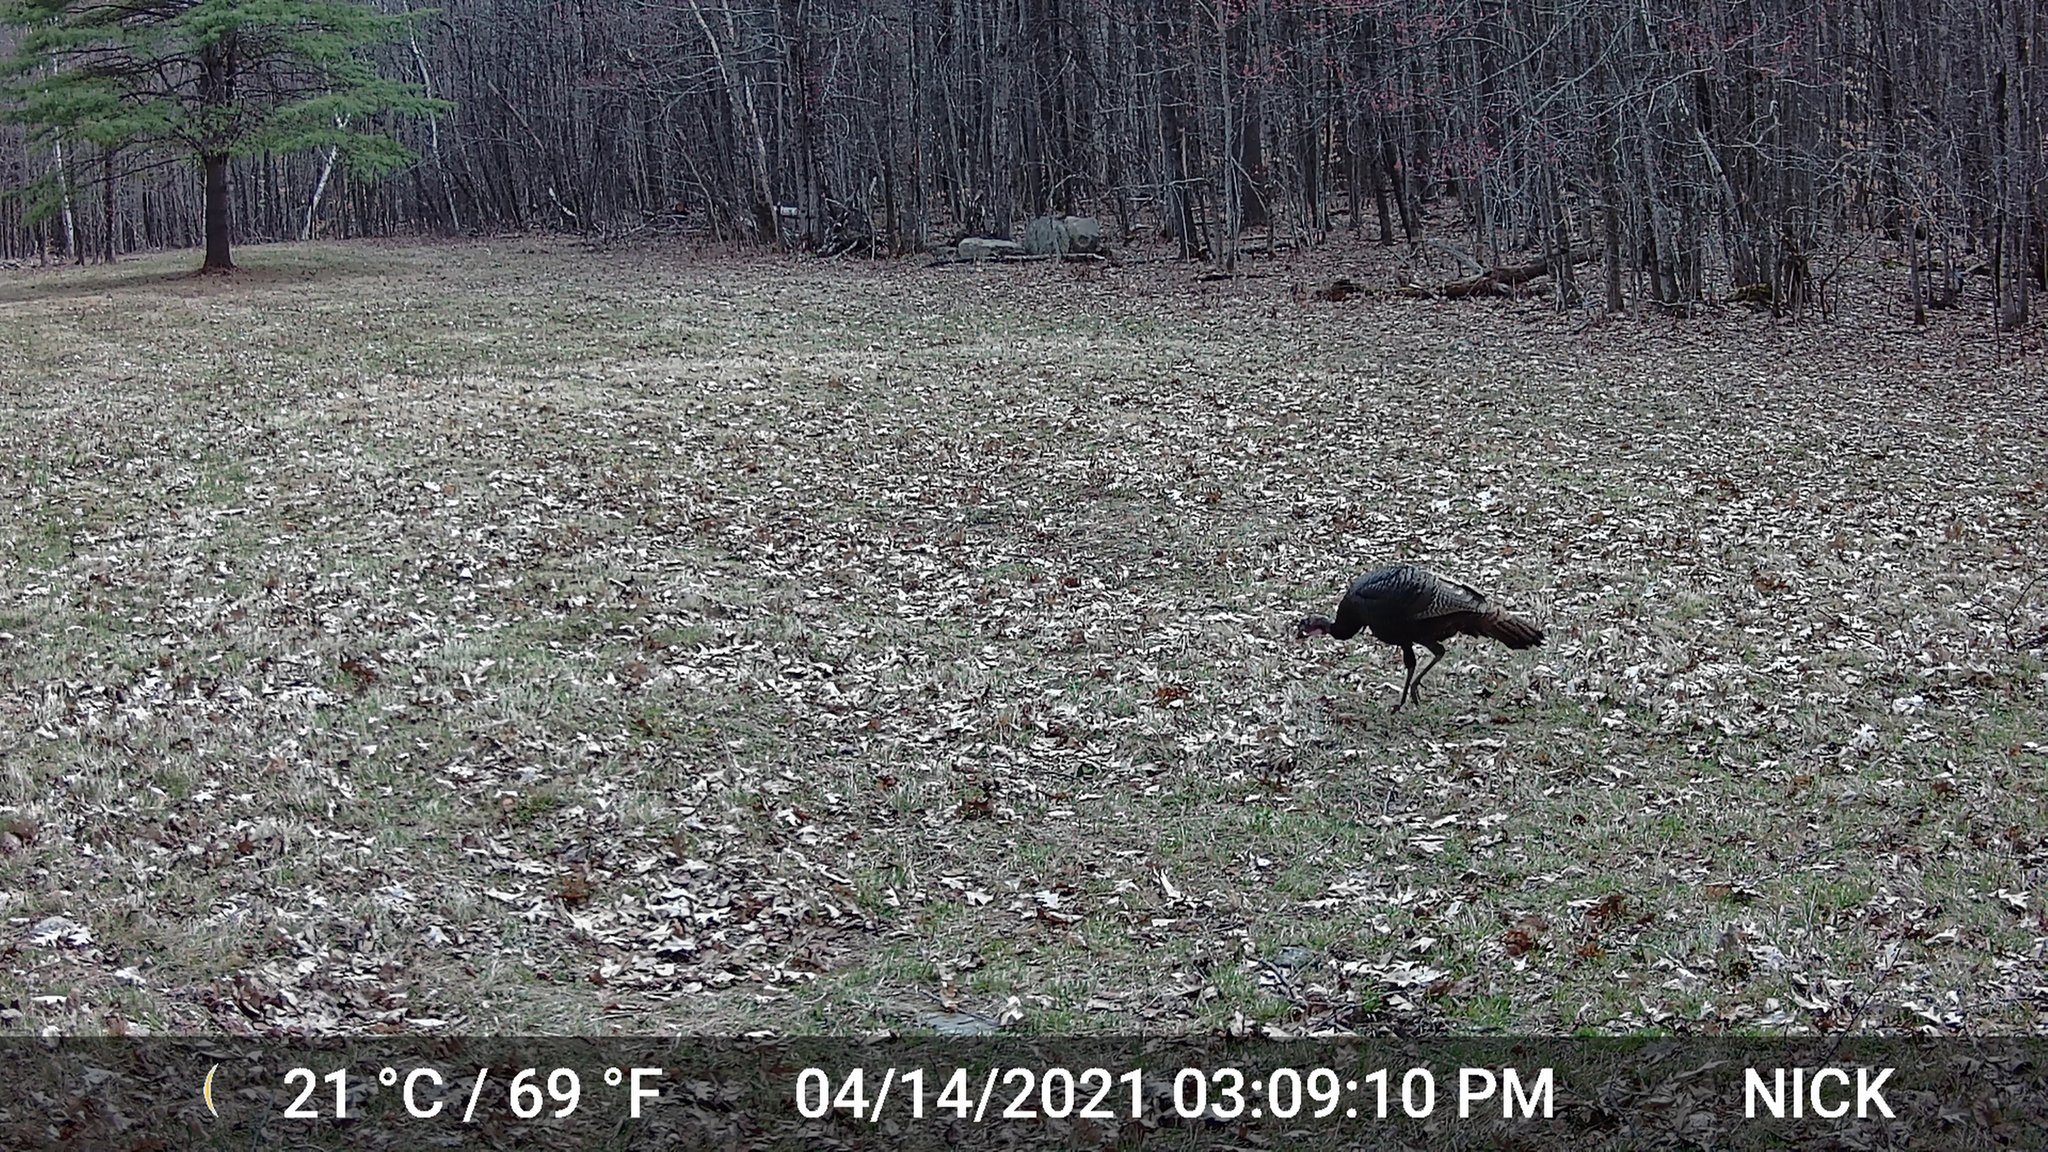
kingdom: Animalia
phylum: Chordata
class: Aves
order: Galliformes
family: Phasianidae
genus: Meleagris
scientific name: Meleagris gallopavo
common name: Wild turkey
